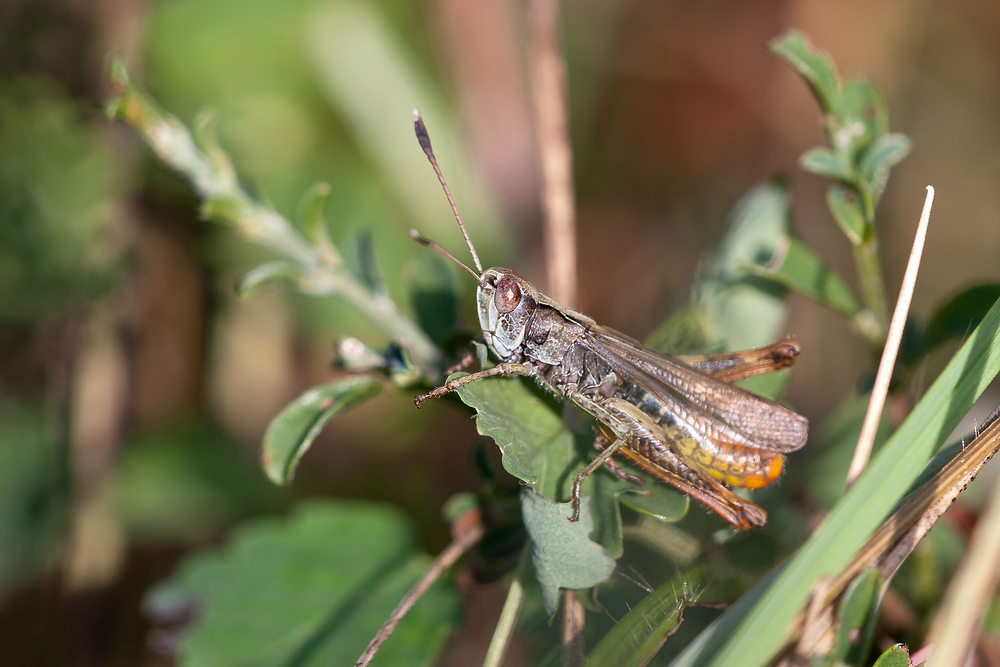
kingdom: Animalia
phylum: Arthropoda
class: Insecta
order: Orthoptera
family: Acrididae
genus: Gomphocerippus
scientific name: Gomphocerippus rufus
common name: Rufous grasshopper
